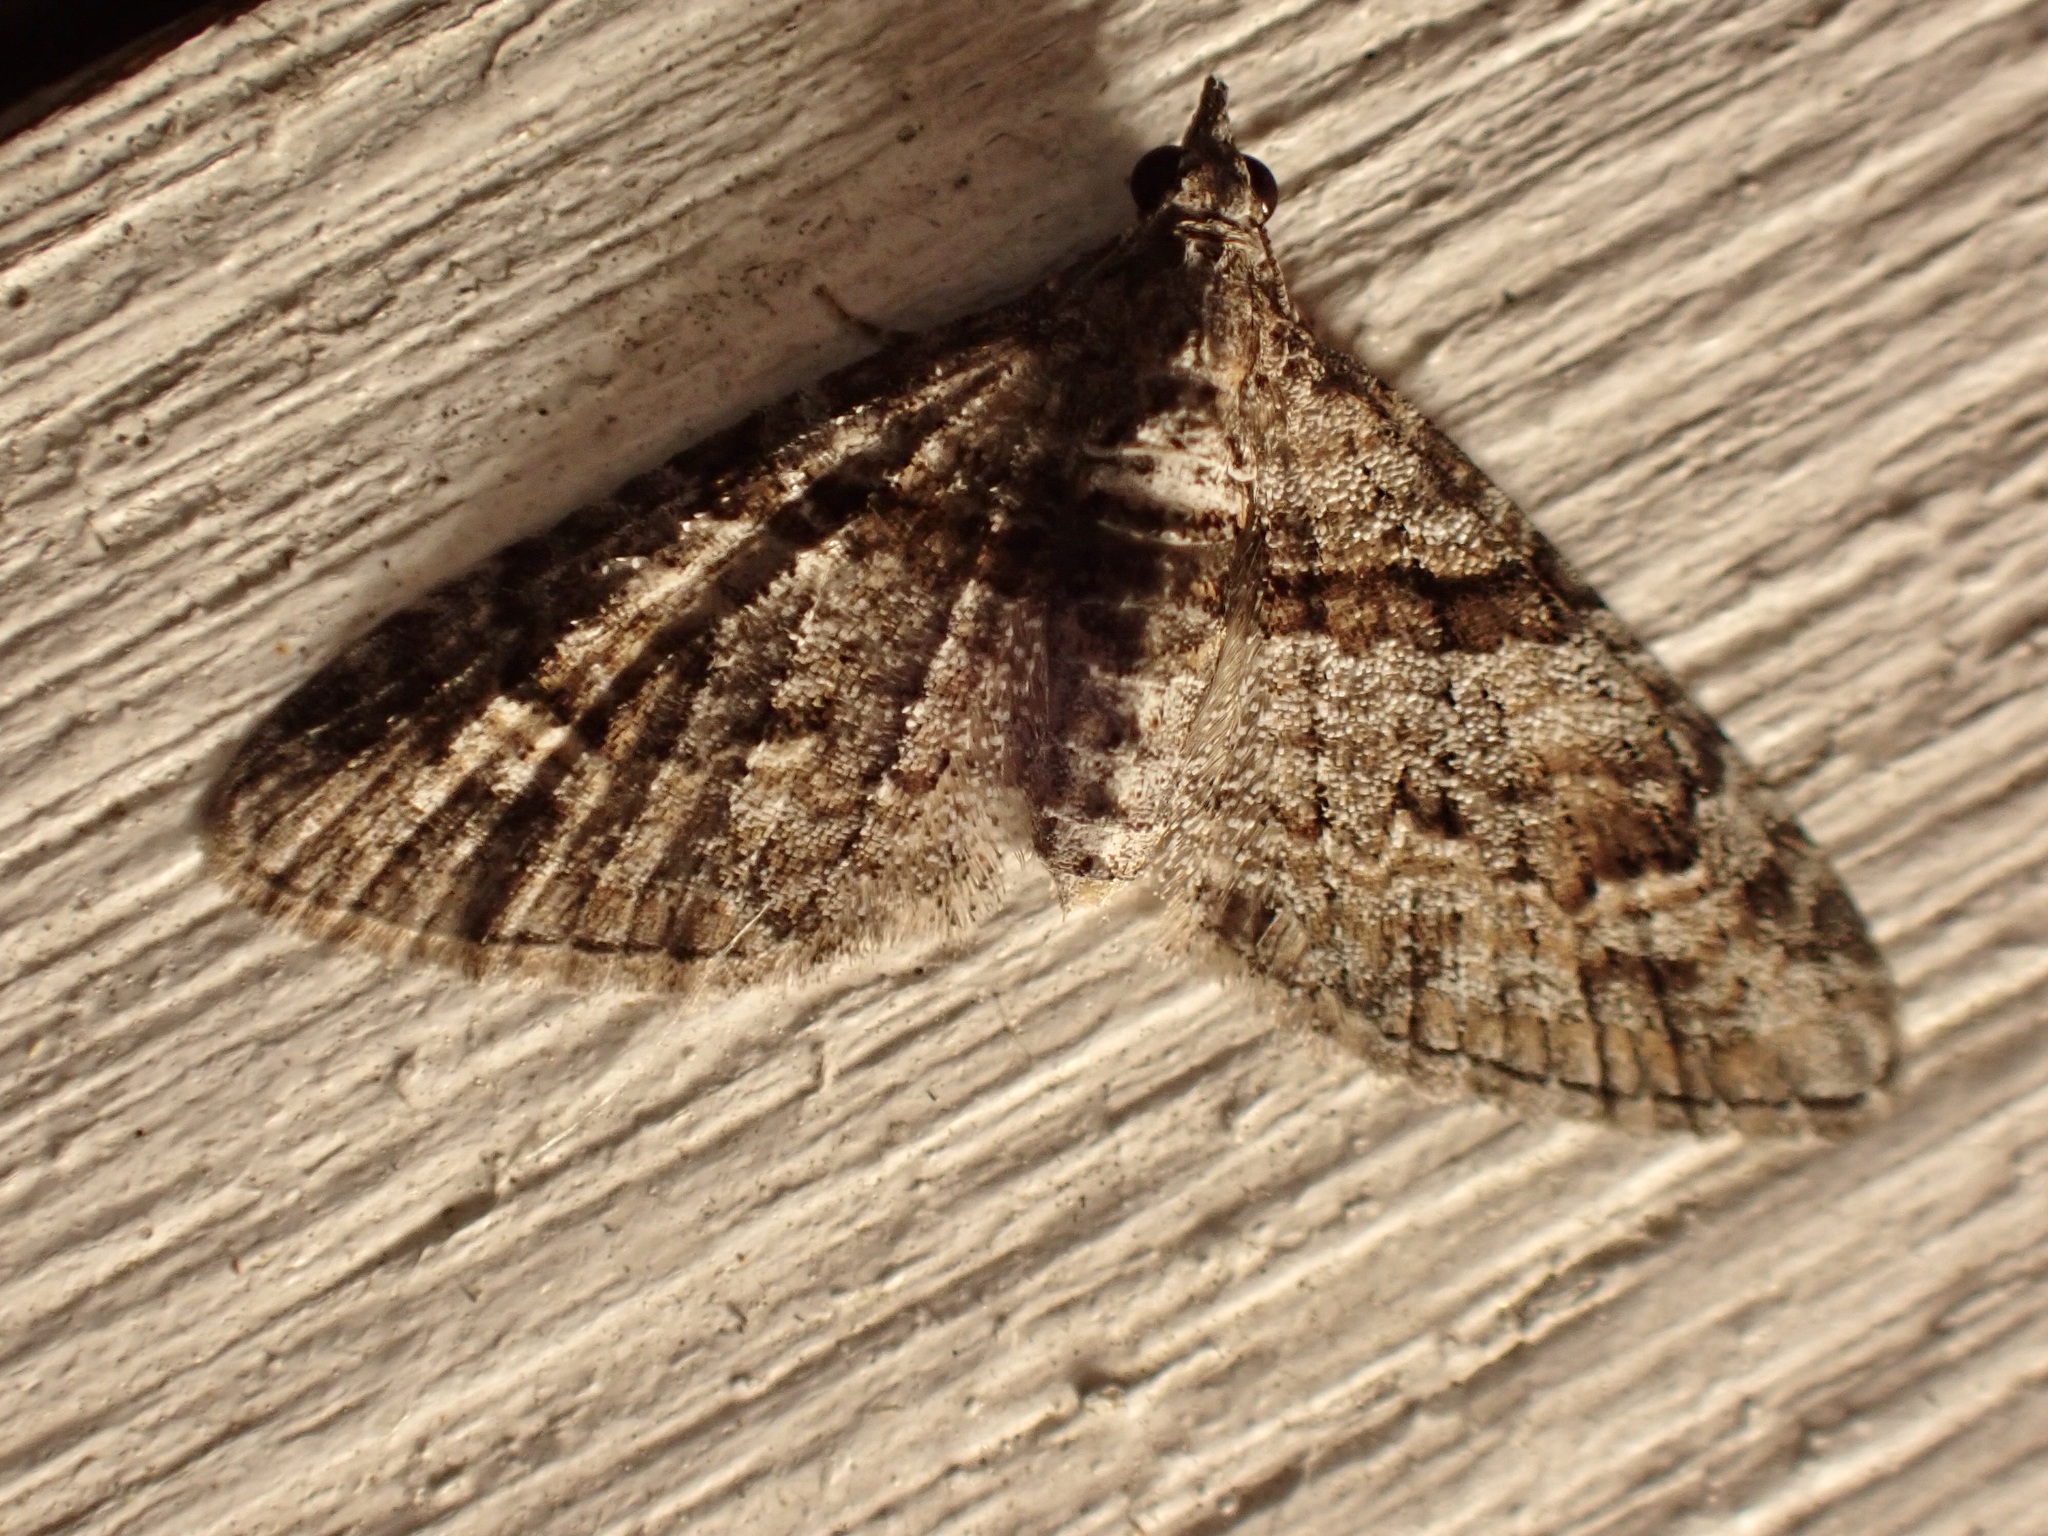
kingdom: Animalia
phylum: Arthropoda
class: Insecta
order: Lepidoptera
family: Geometridae
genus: Phrissogonus
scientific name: Phrissogonus laticostata
